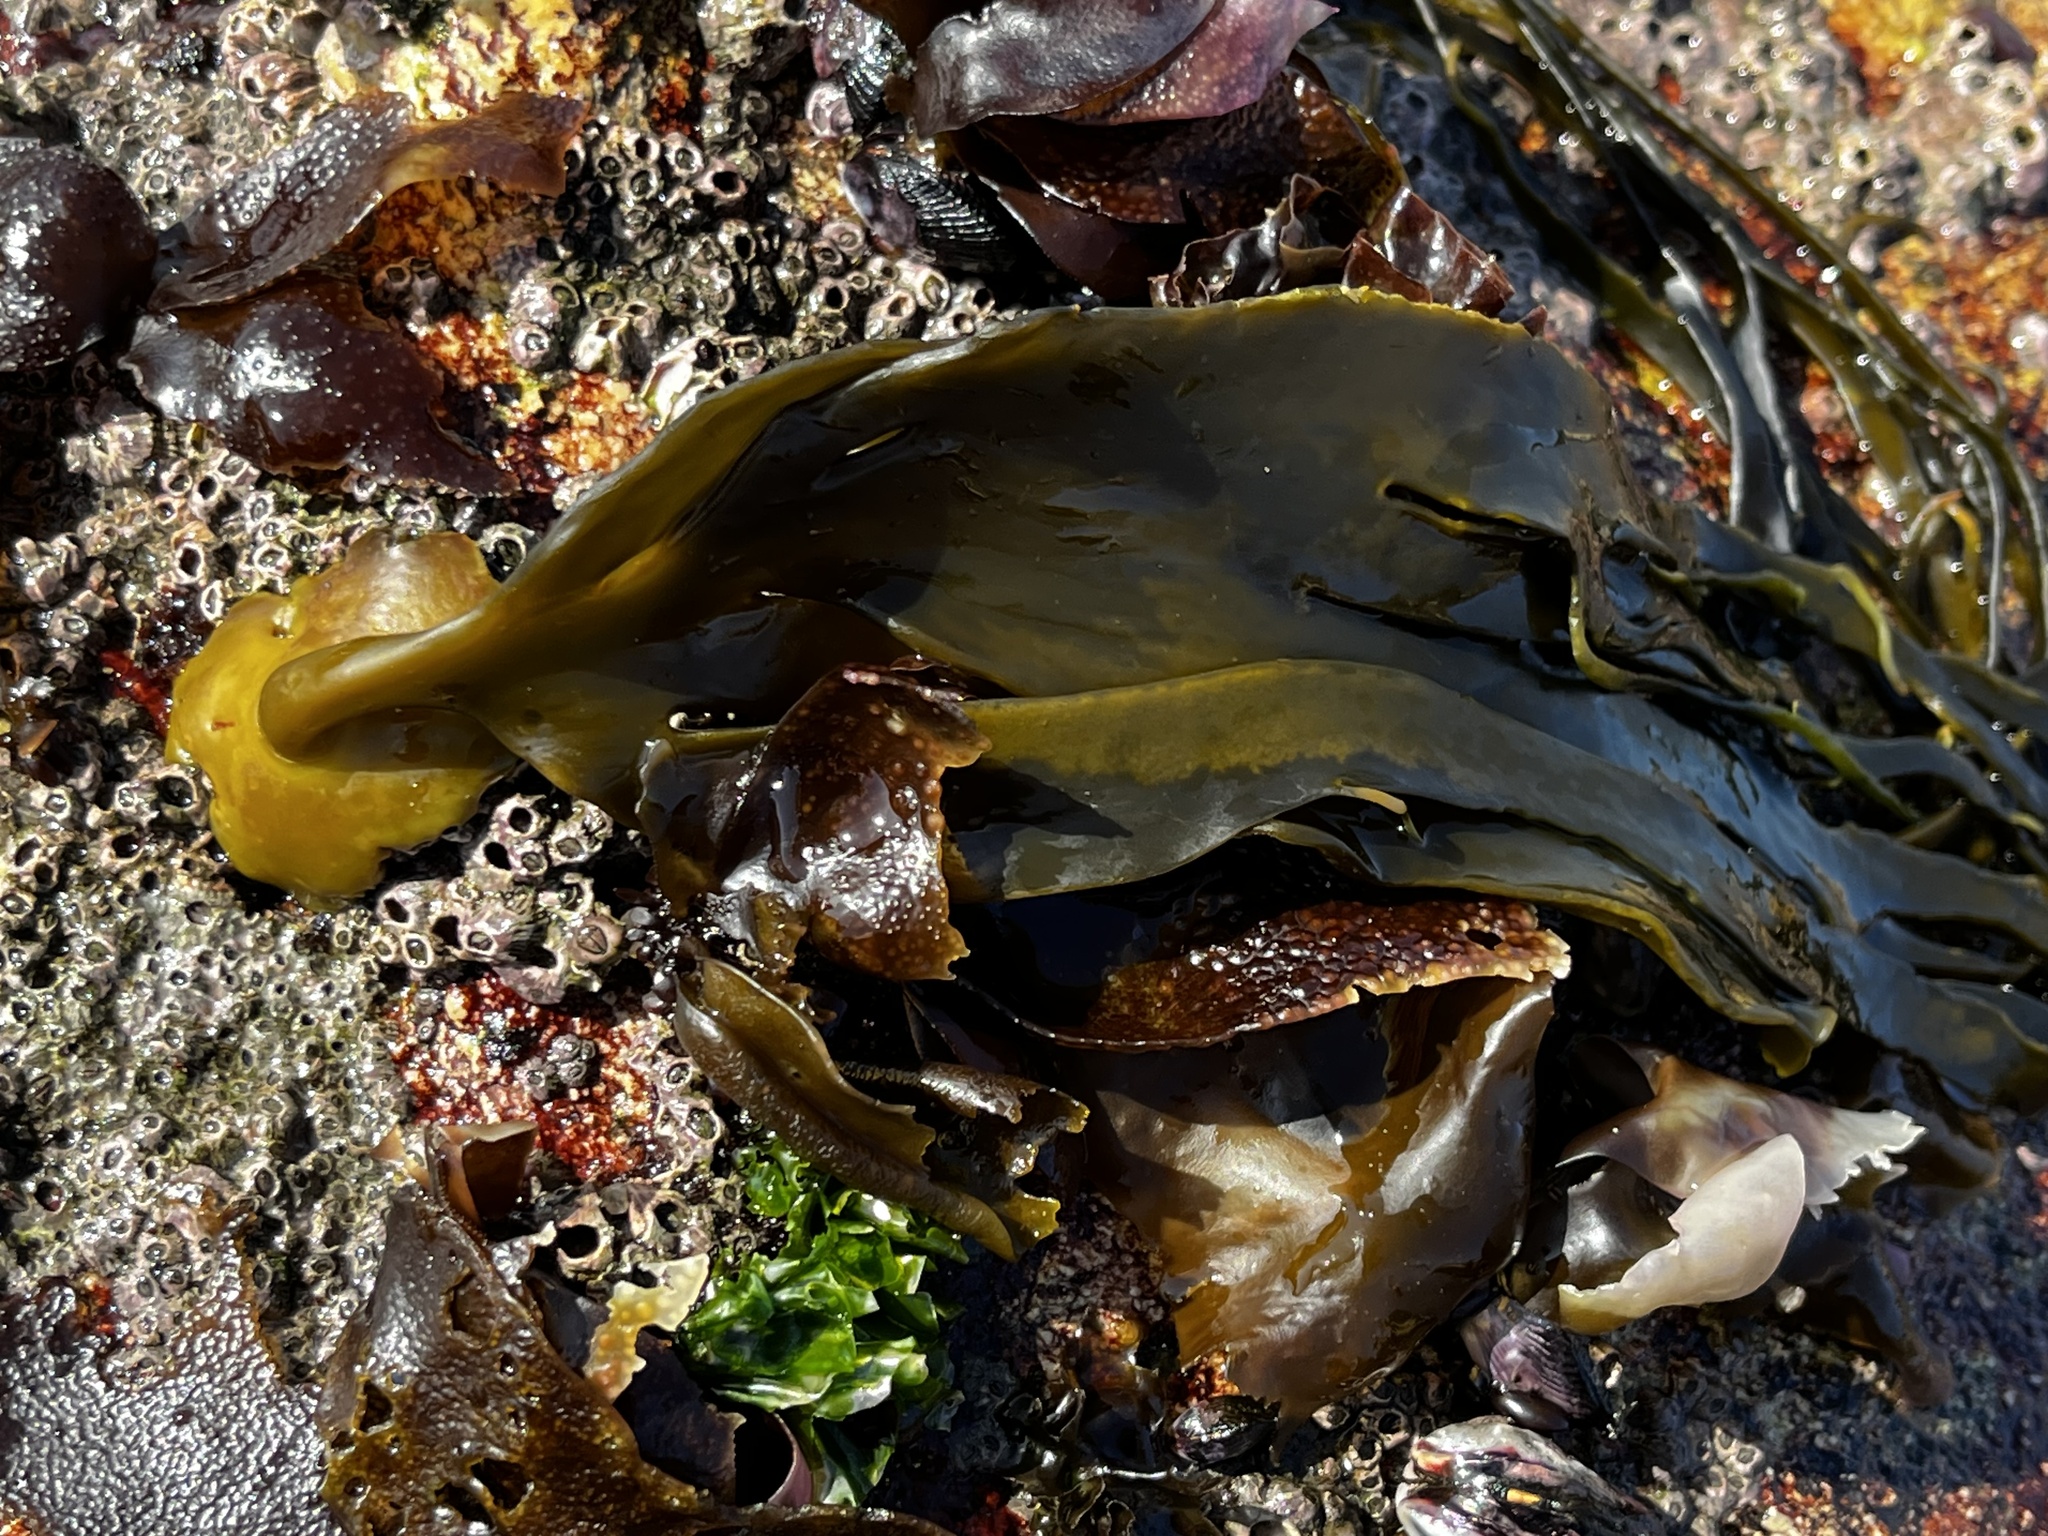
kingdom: Chromista
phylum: Ochrophyta
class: Phaeophyceae
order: Fucales
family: Durvillaeaceae
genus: Durvillaea
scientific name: Durvillaea
